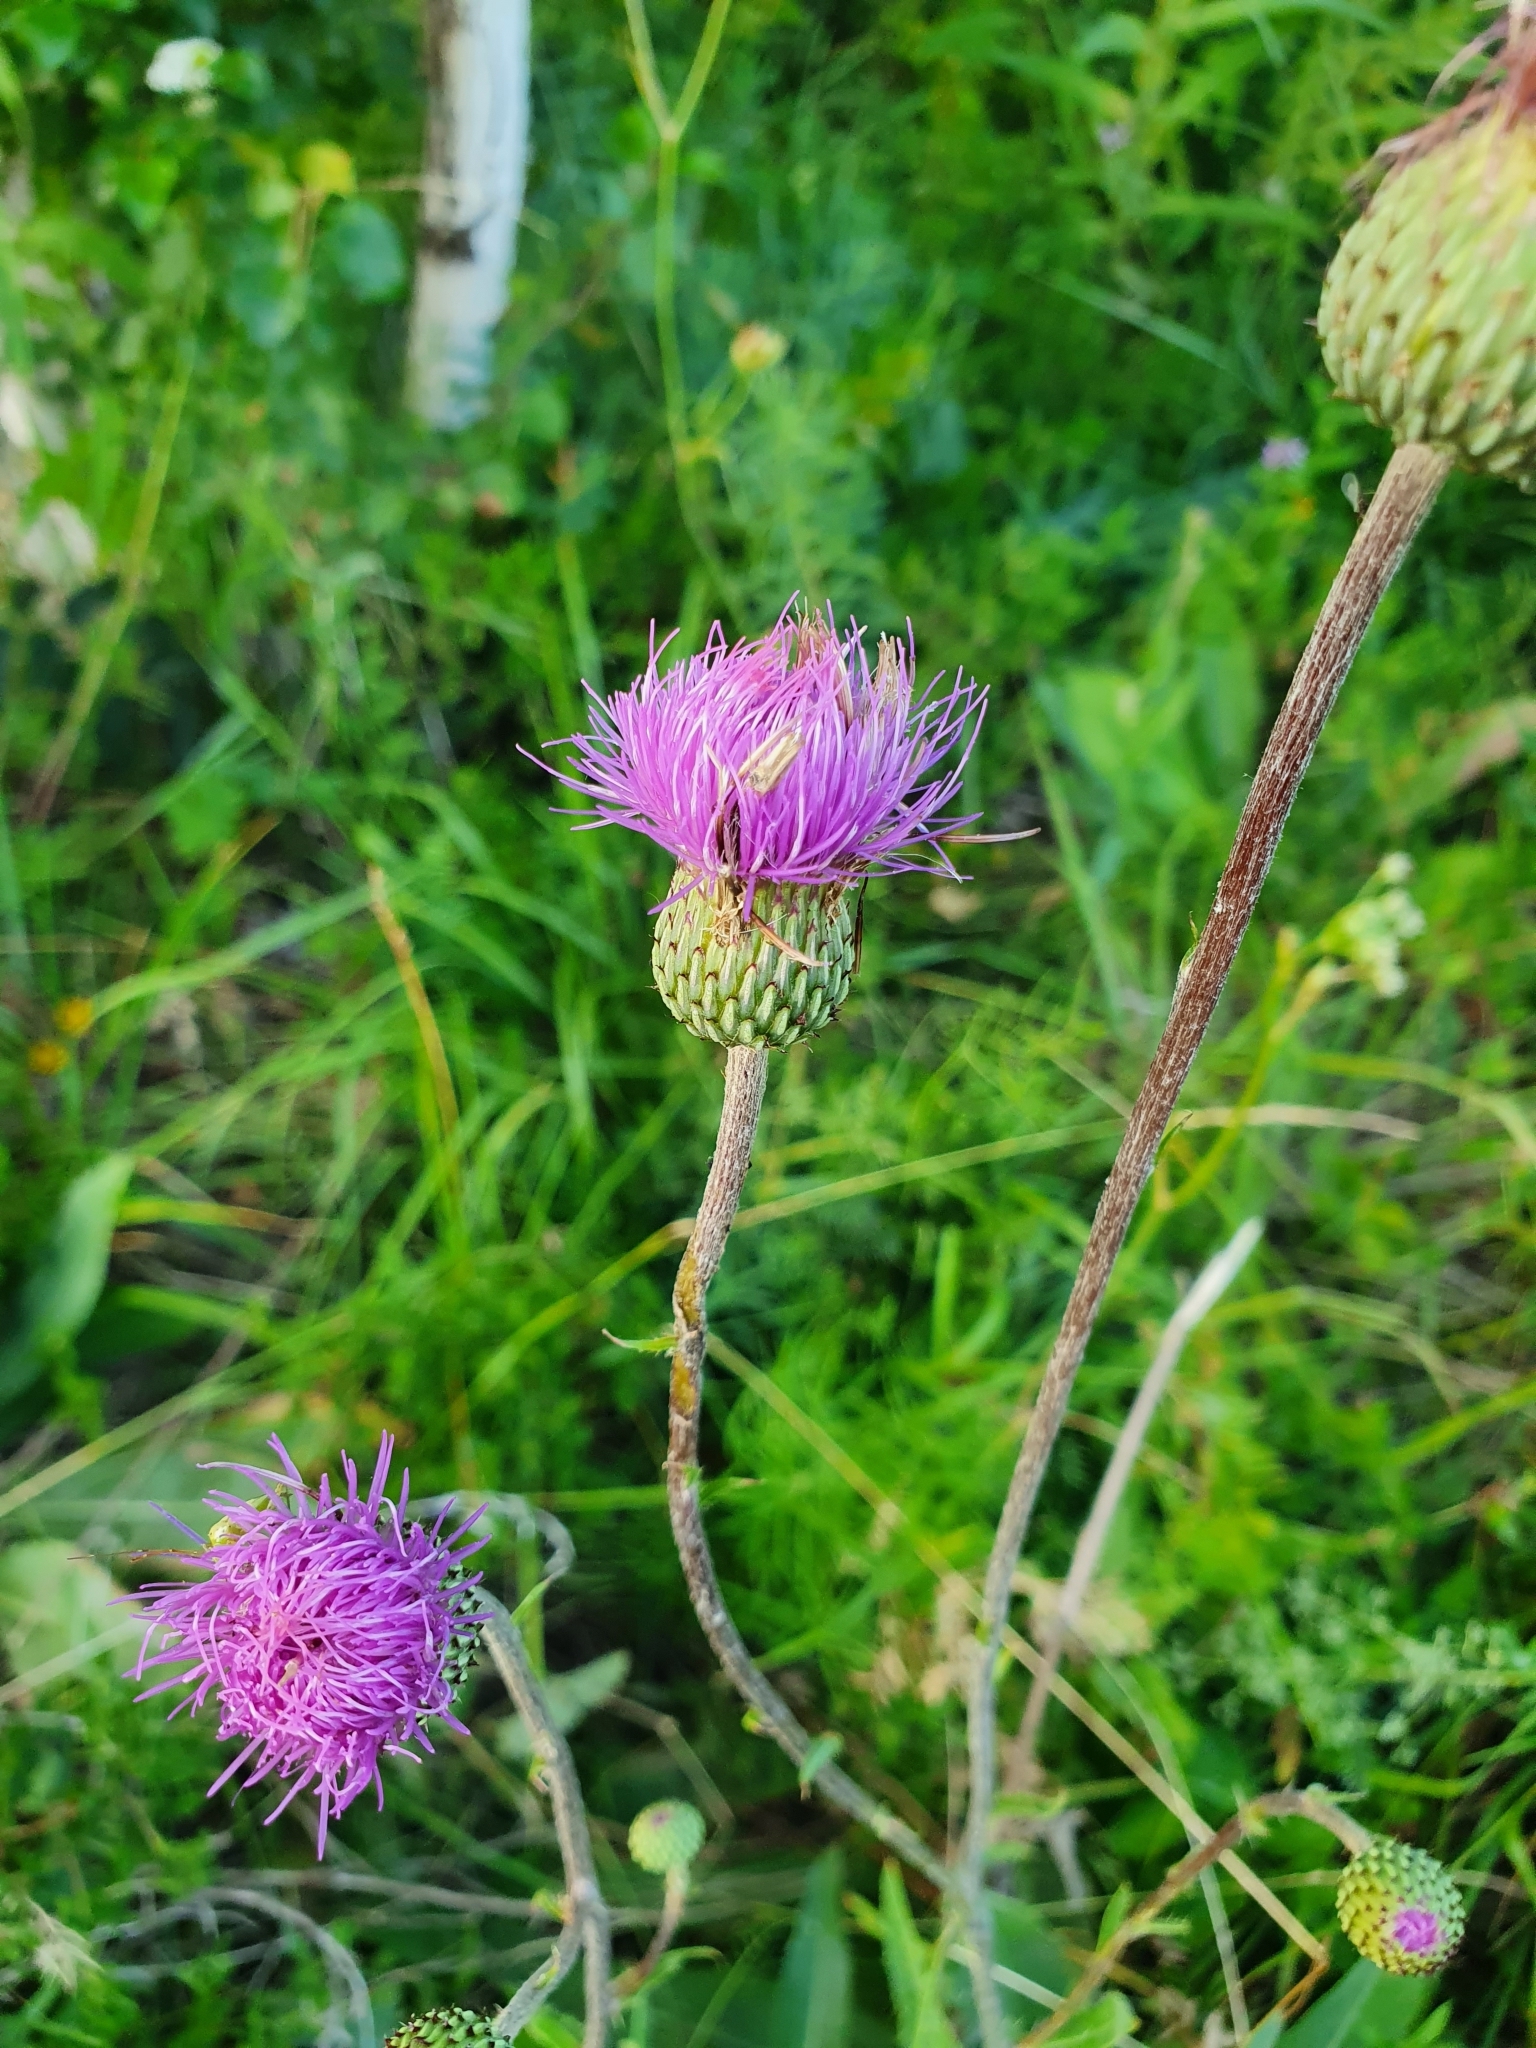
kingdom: Plantae
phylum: Tracheophyta
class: Magnoliopsida
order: Asterales
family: Asteraceae
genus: Cirsium
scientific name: Cirsium canum
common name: Queen anne's thistle
